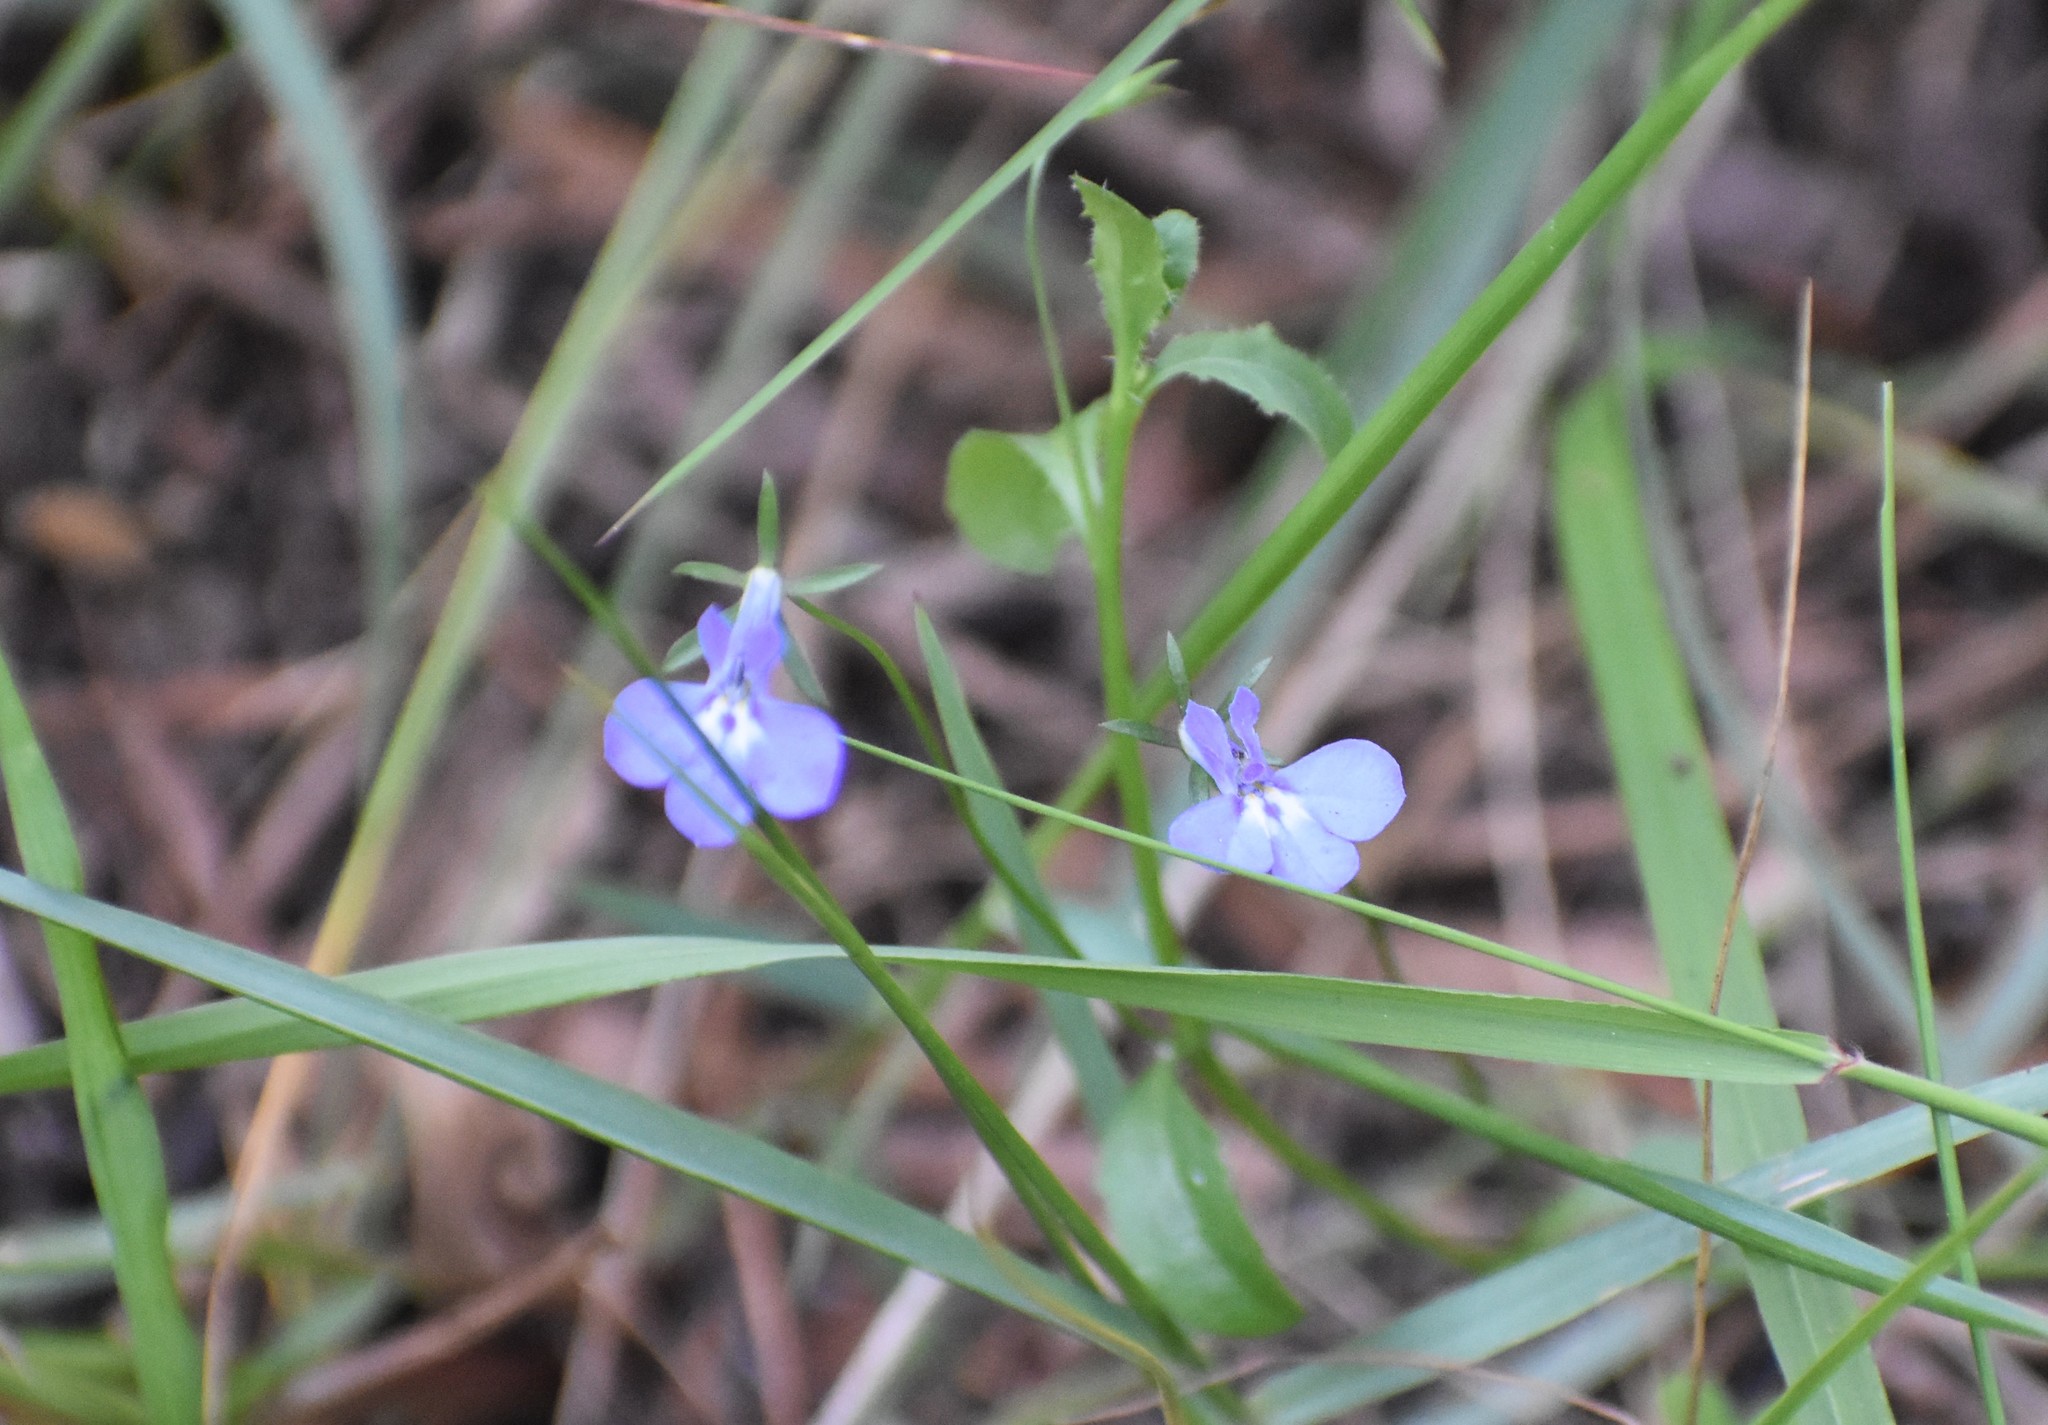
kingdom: Plantae
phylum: Tracheophyta
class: Magnoliopsida
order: Asterales
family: Campanulaceae
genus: Lobelia
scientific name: Lobelia erinus
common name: Edging lobelia
